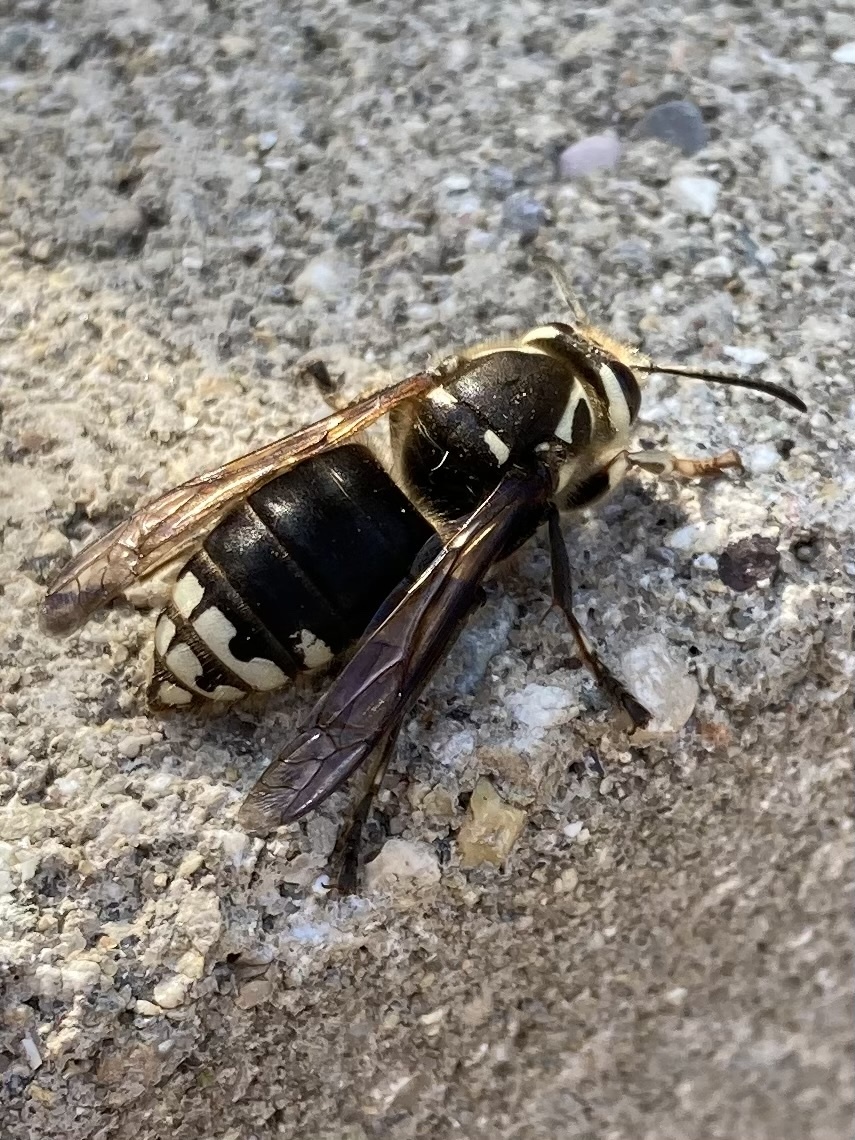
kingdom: Animalia
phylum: Arthropoda
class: Insecta
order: Hymenoptera
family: Vespidae
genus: Dolichovespula
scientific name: Dolichovespula maculata
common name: Bald-faced hornet
